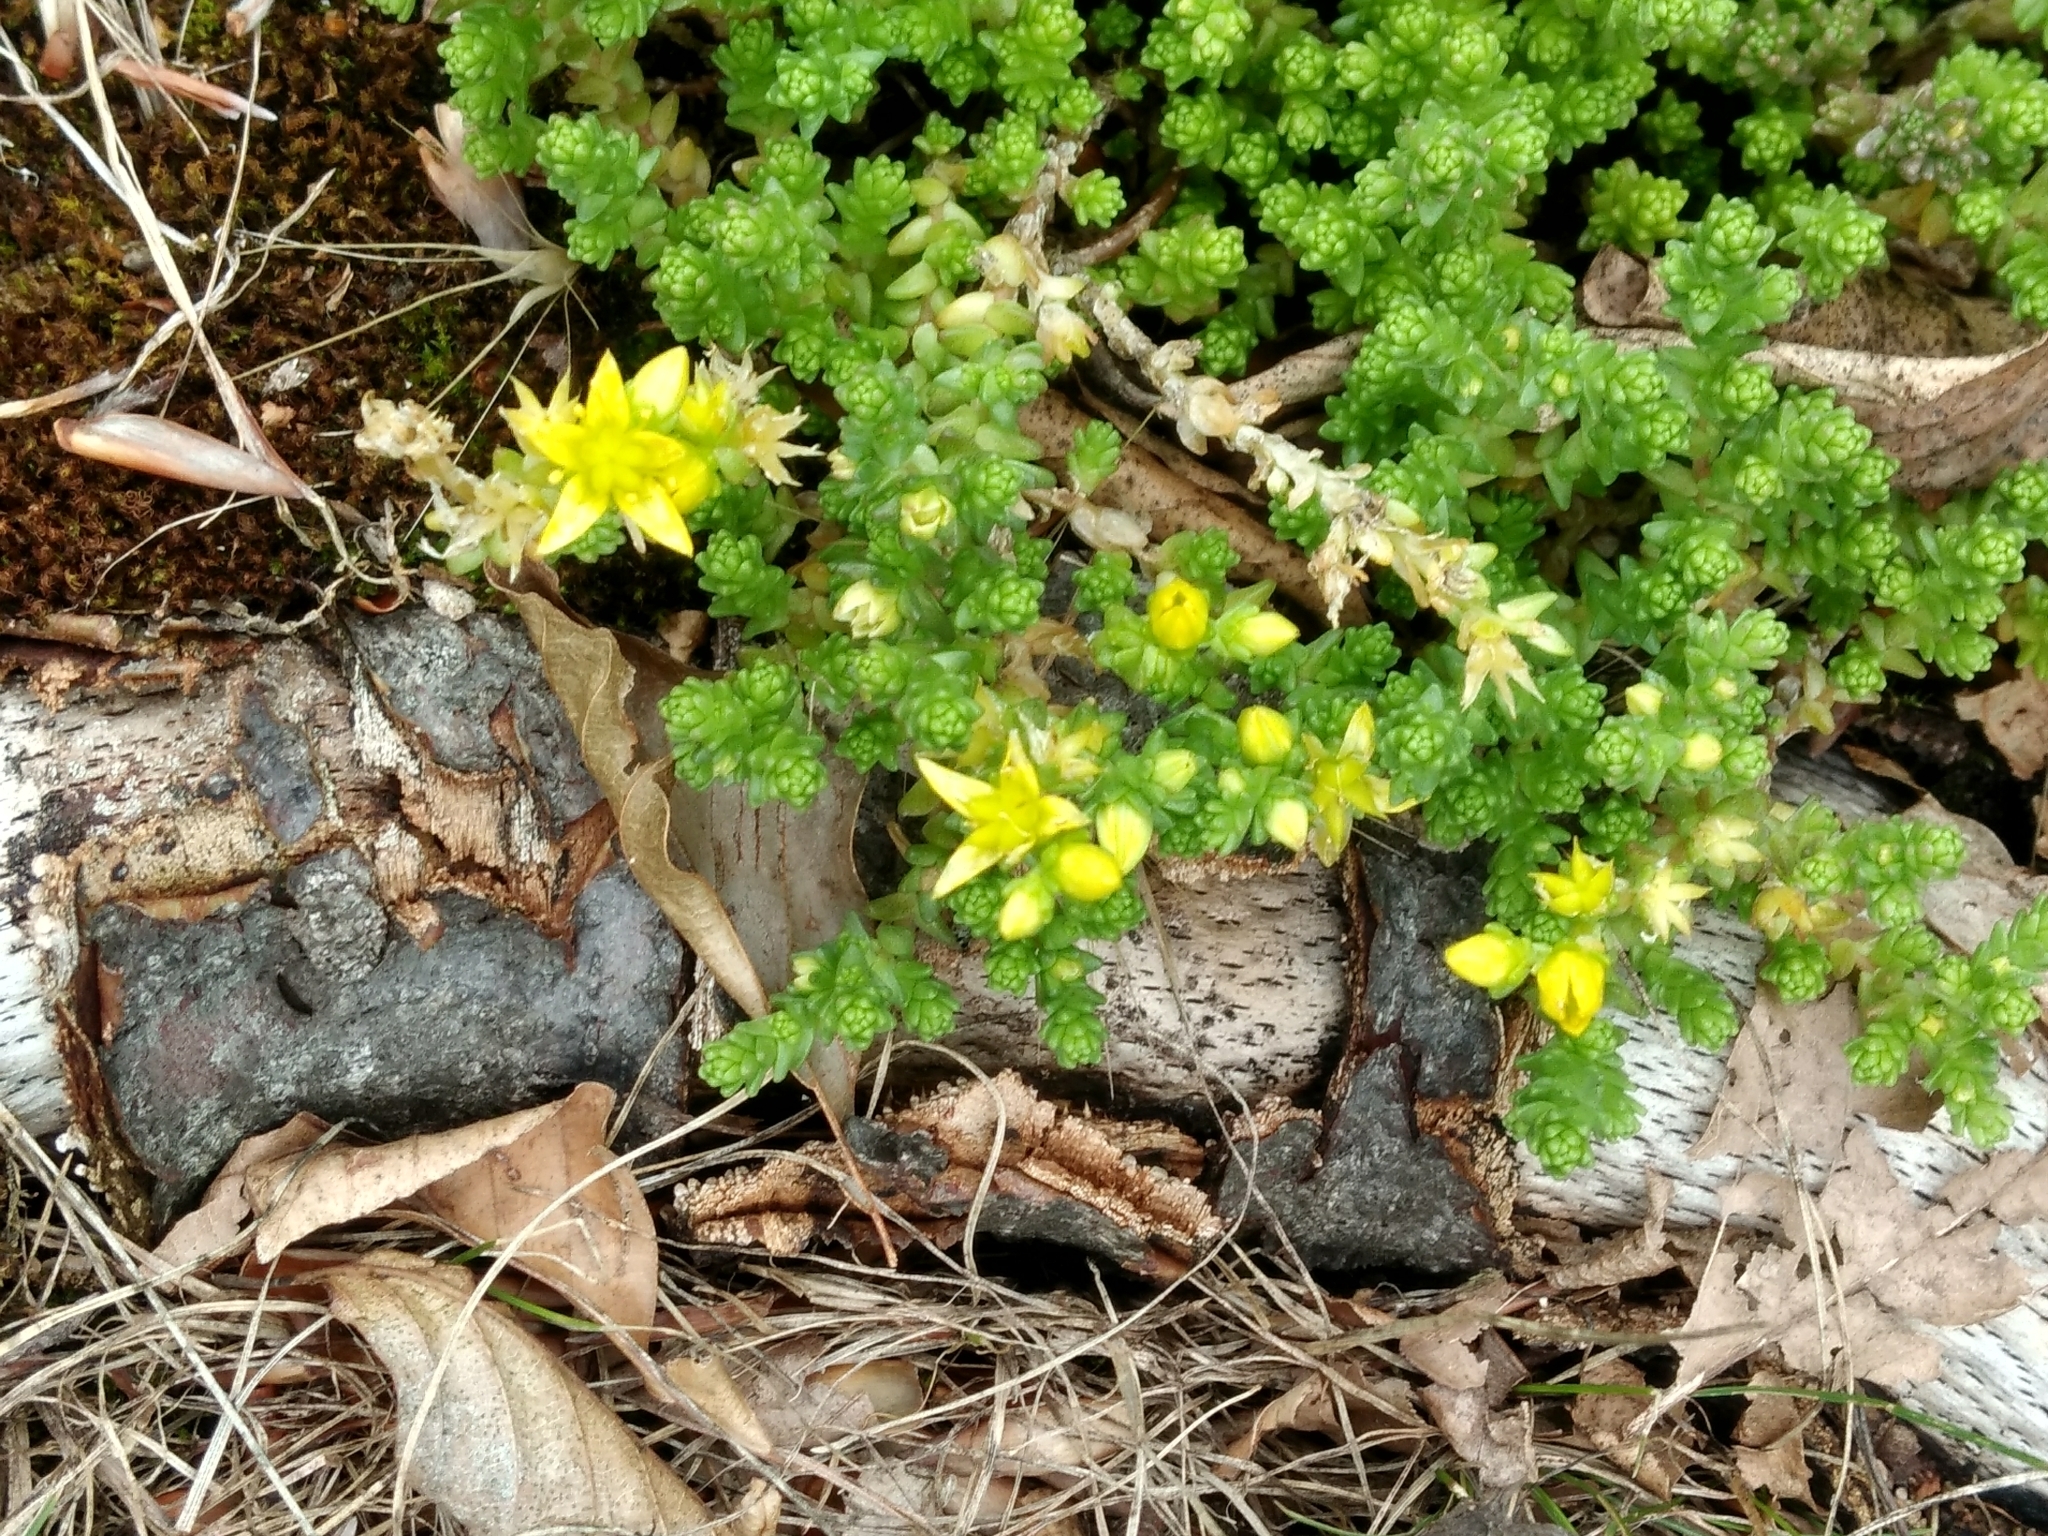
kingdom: Plantae
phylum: Tracheophyta
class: Magnoliopsida
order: Saxifragales
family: Crassulaceae
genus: Sedum
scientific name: Sedum acre
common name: Biting stonecrop
